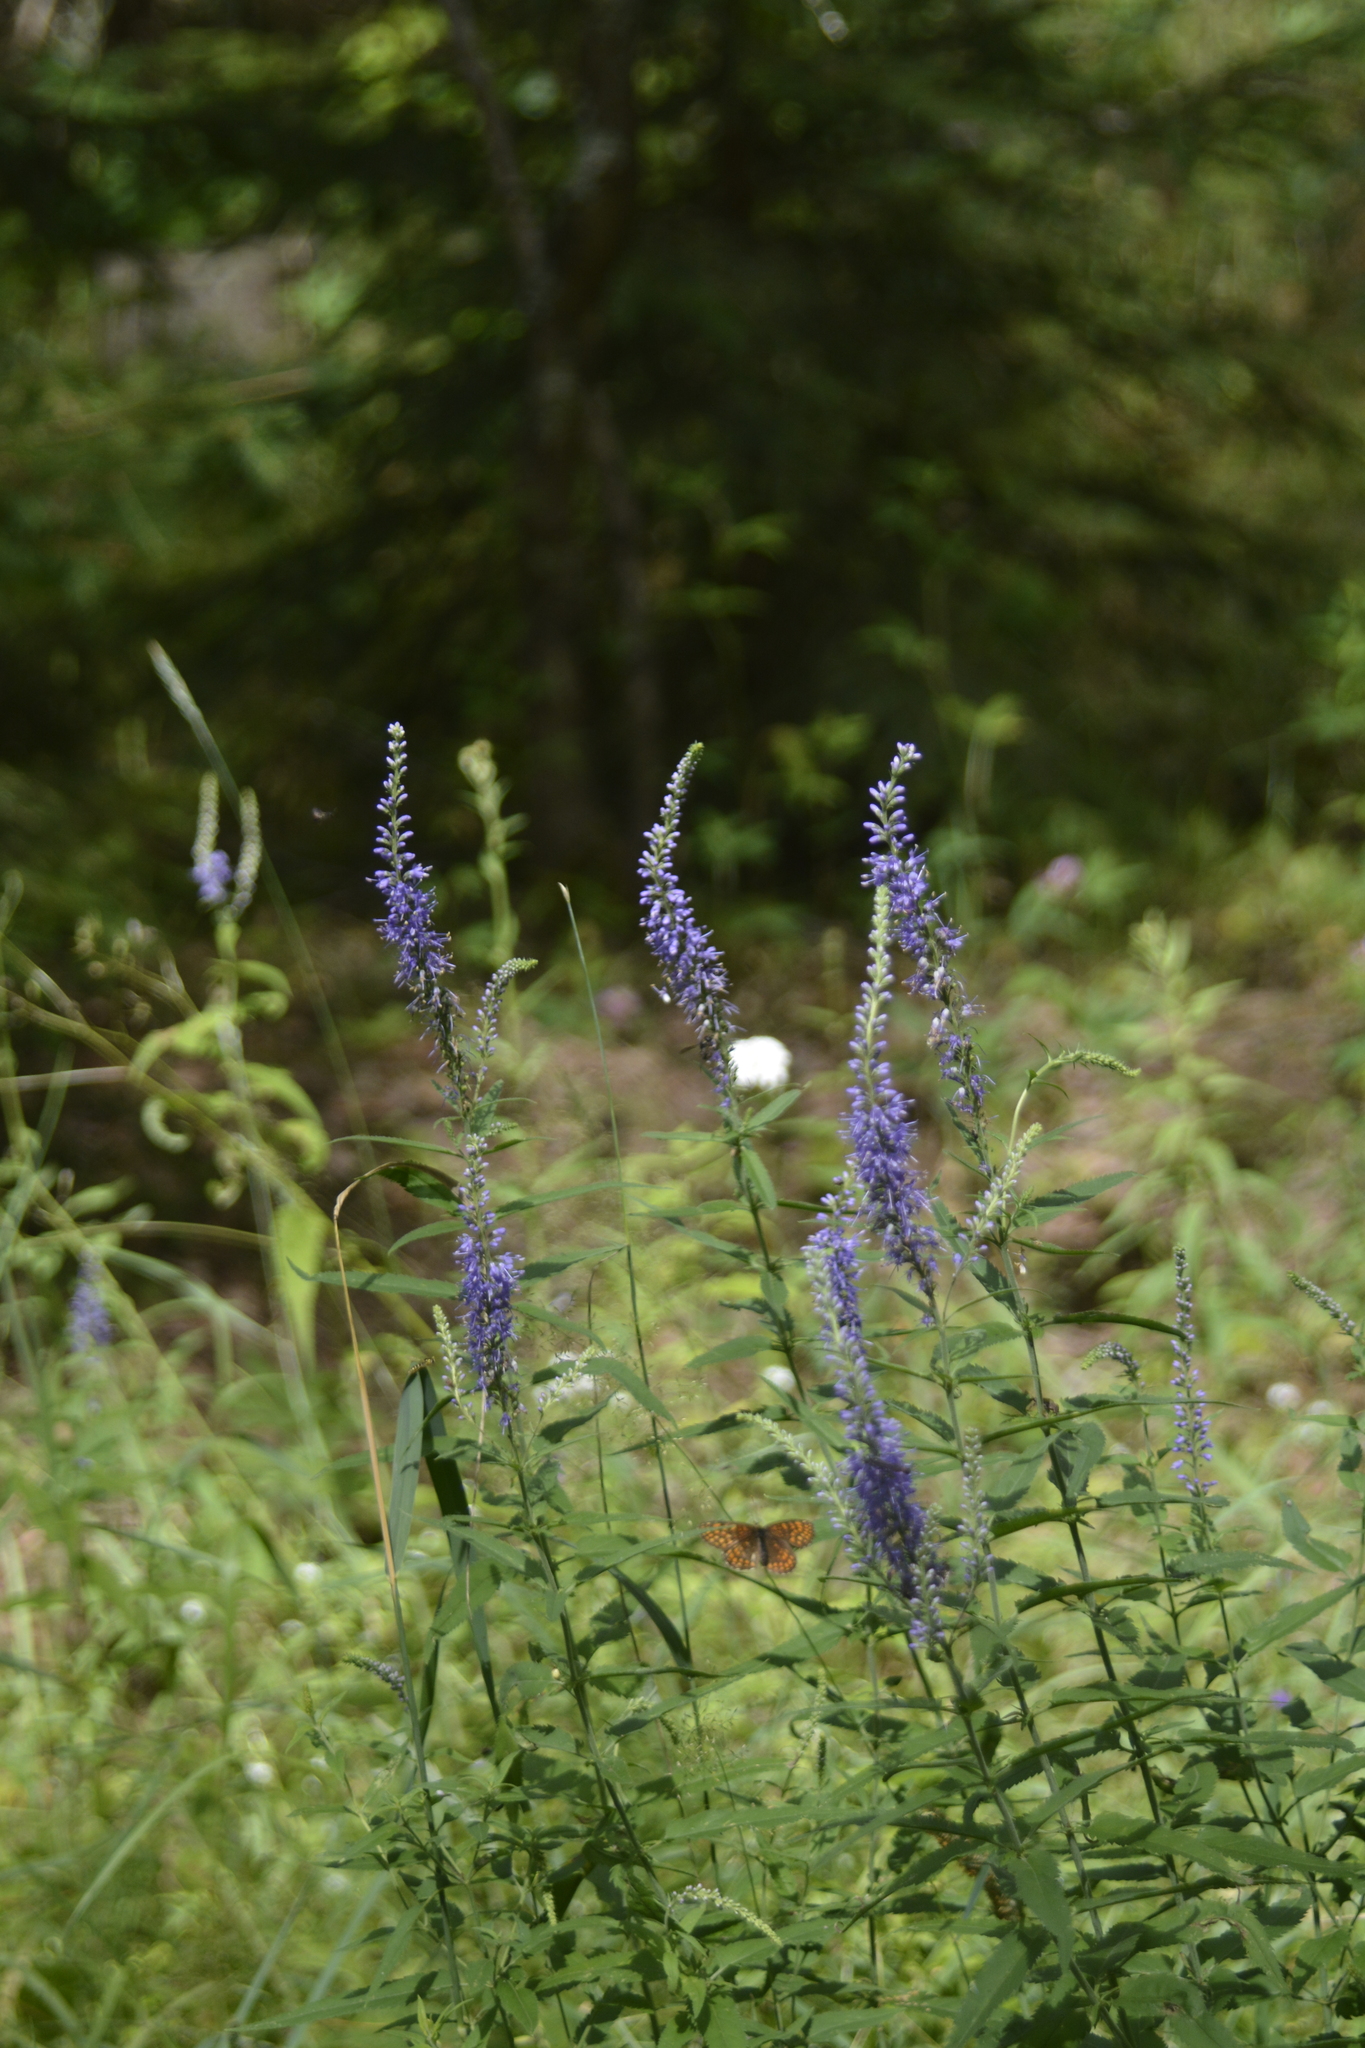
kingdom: Plantae
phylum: Tracheophyta
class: Magnoliopsida
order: Lamiales
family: Plantaginaceae
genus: Veronica
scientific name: Veronica longifolia
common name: Garden speedwell
